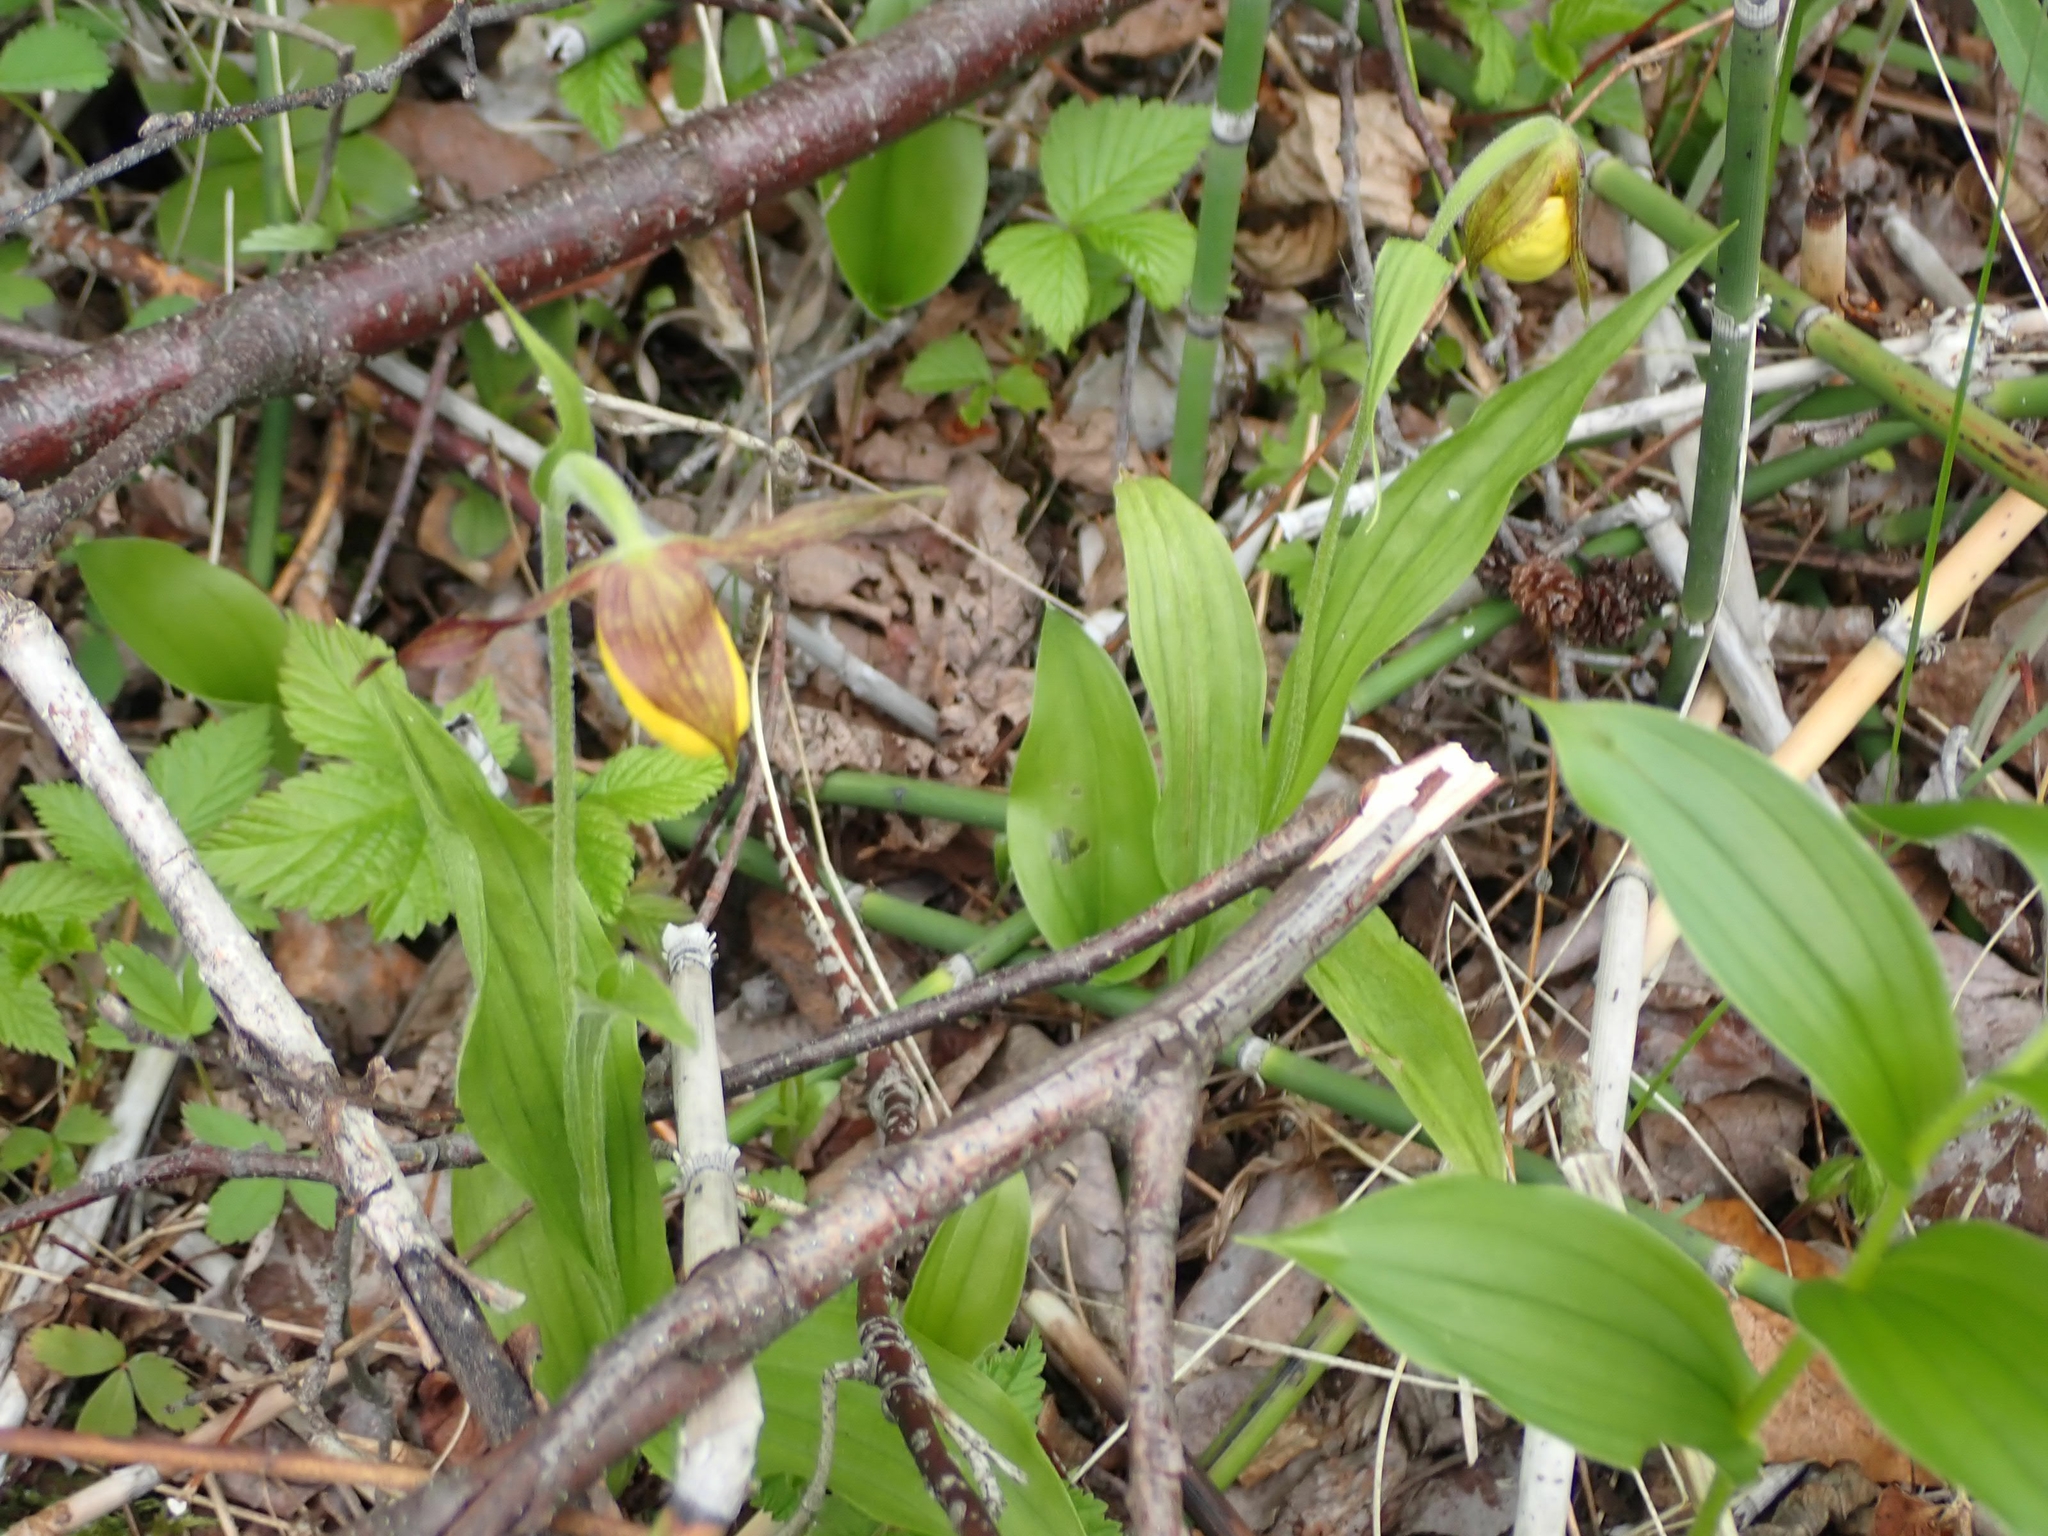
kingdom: Plantae
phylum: Tracheophyta
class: Liliopsida
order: Asparagales
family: Orchidaceae
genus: Cypripedium
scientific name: Cypripedium parviflorum
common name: American yellow lady's-slipper
